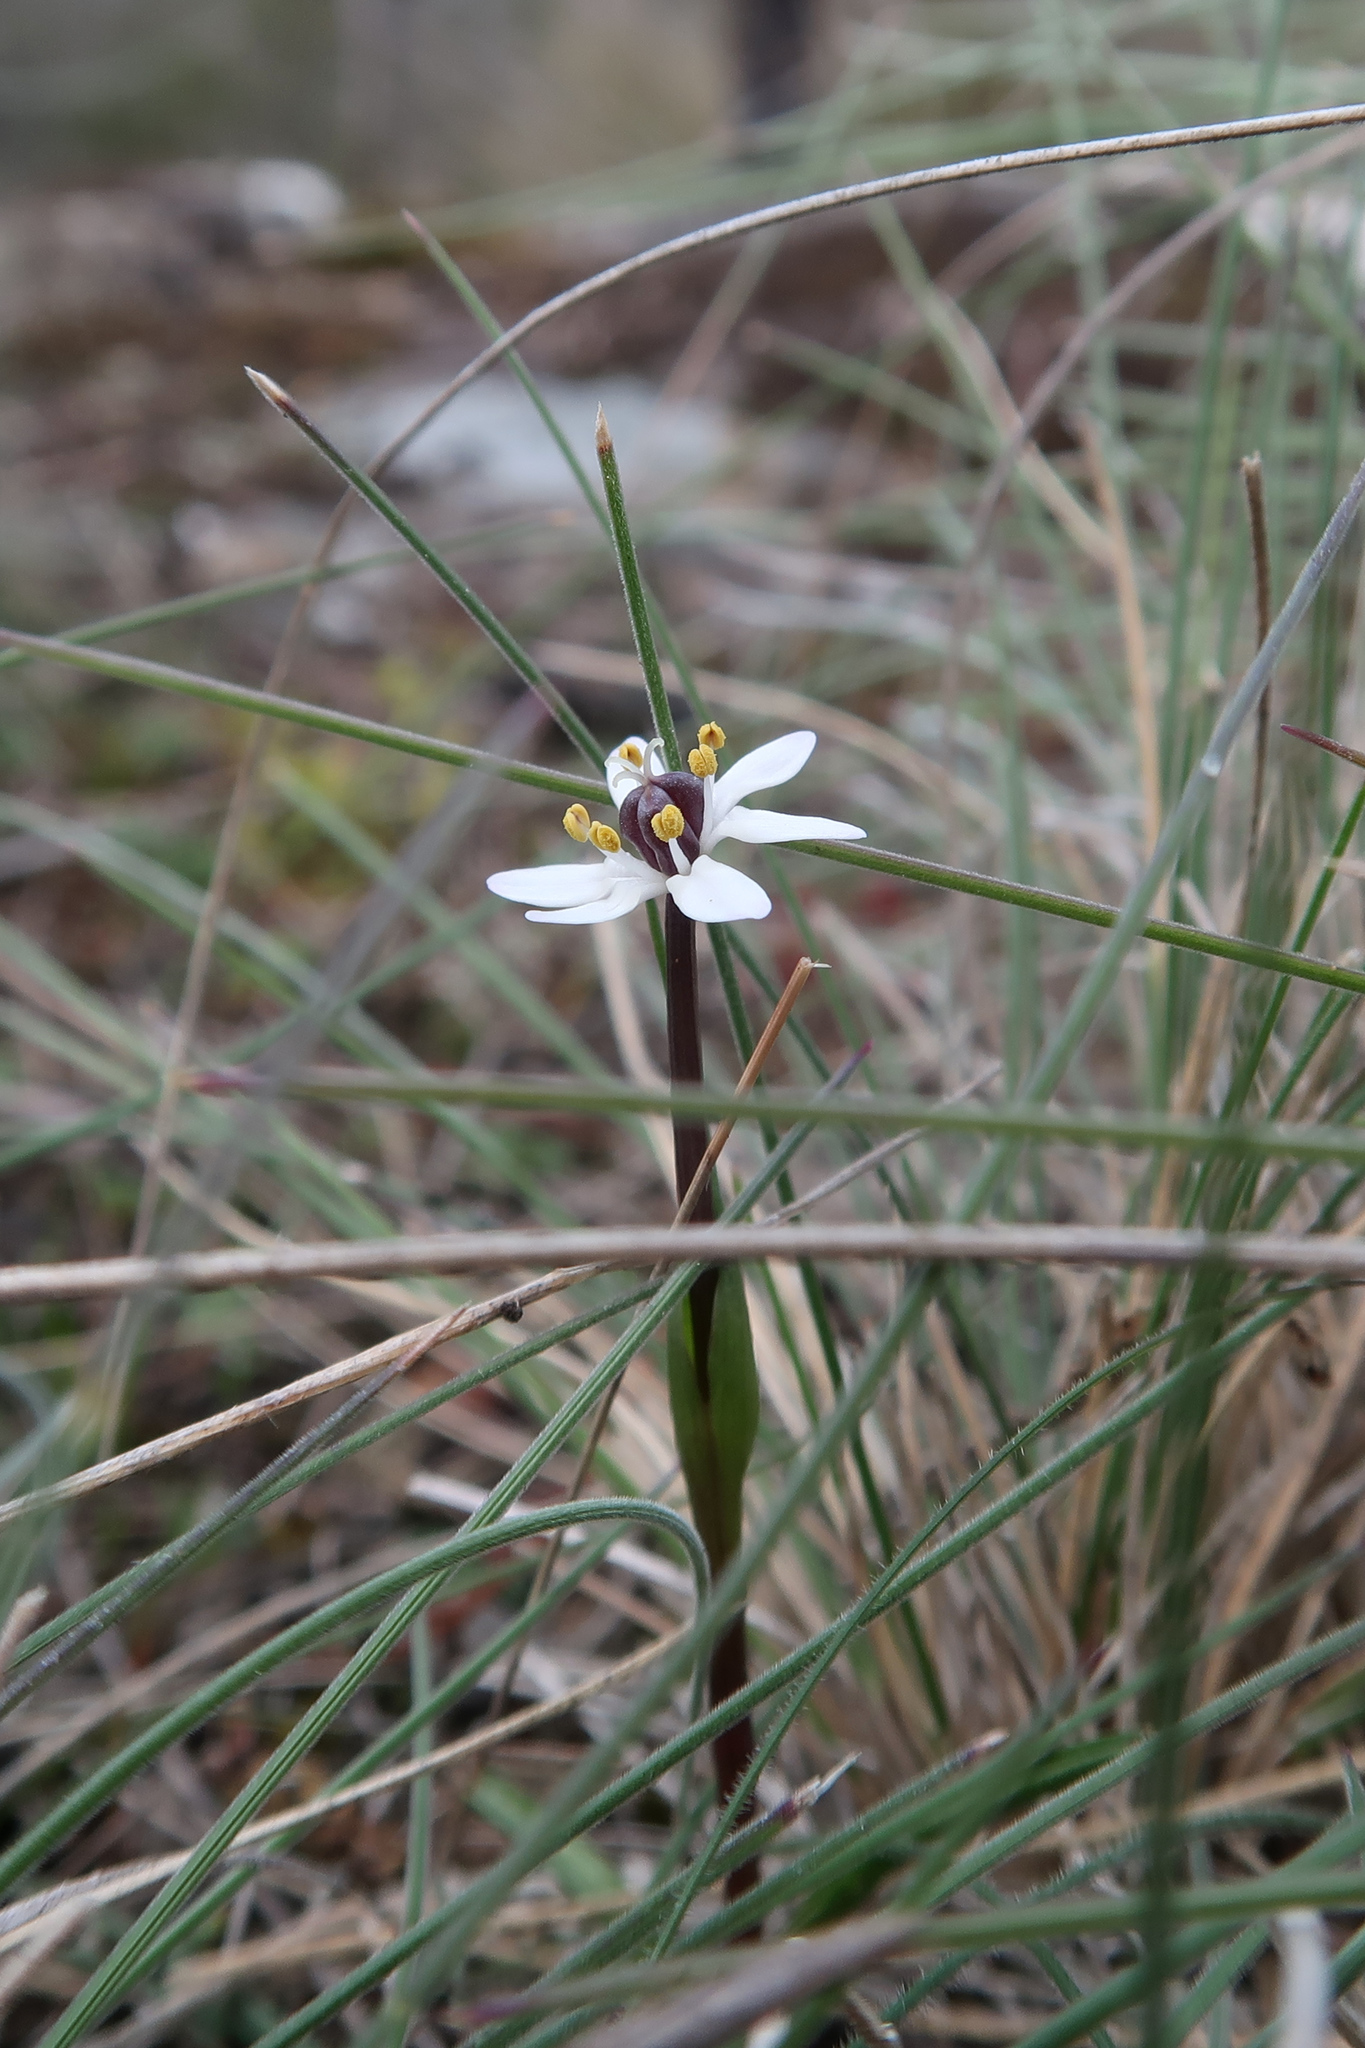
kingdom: Plantae
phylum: Tracheophyta
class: Liliopsida
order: Liliales
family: Colchicaceae
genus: Wurmbea
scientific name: Wurmbea uniflora
